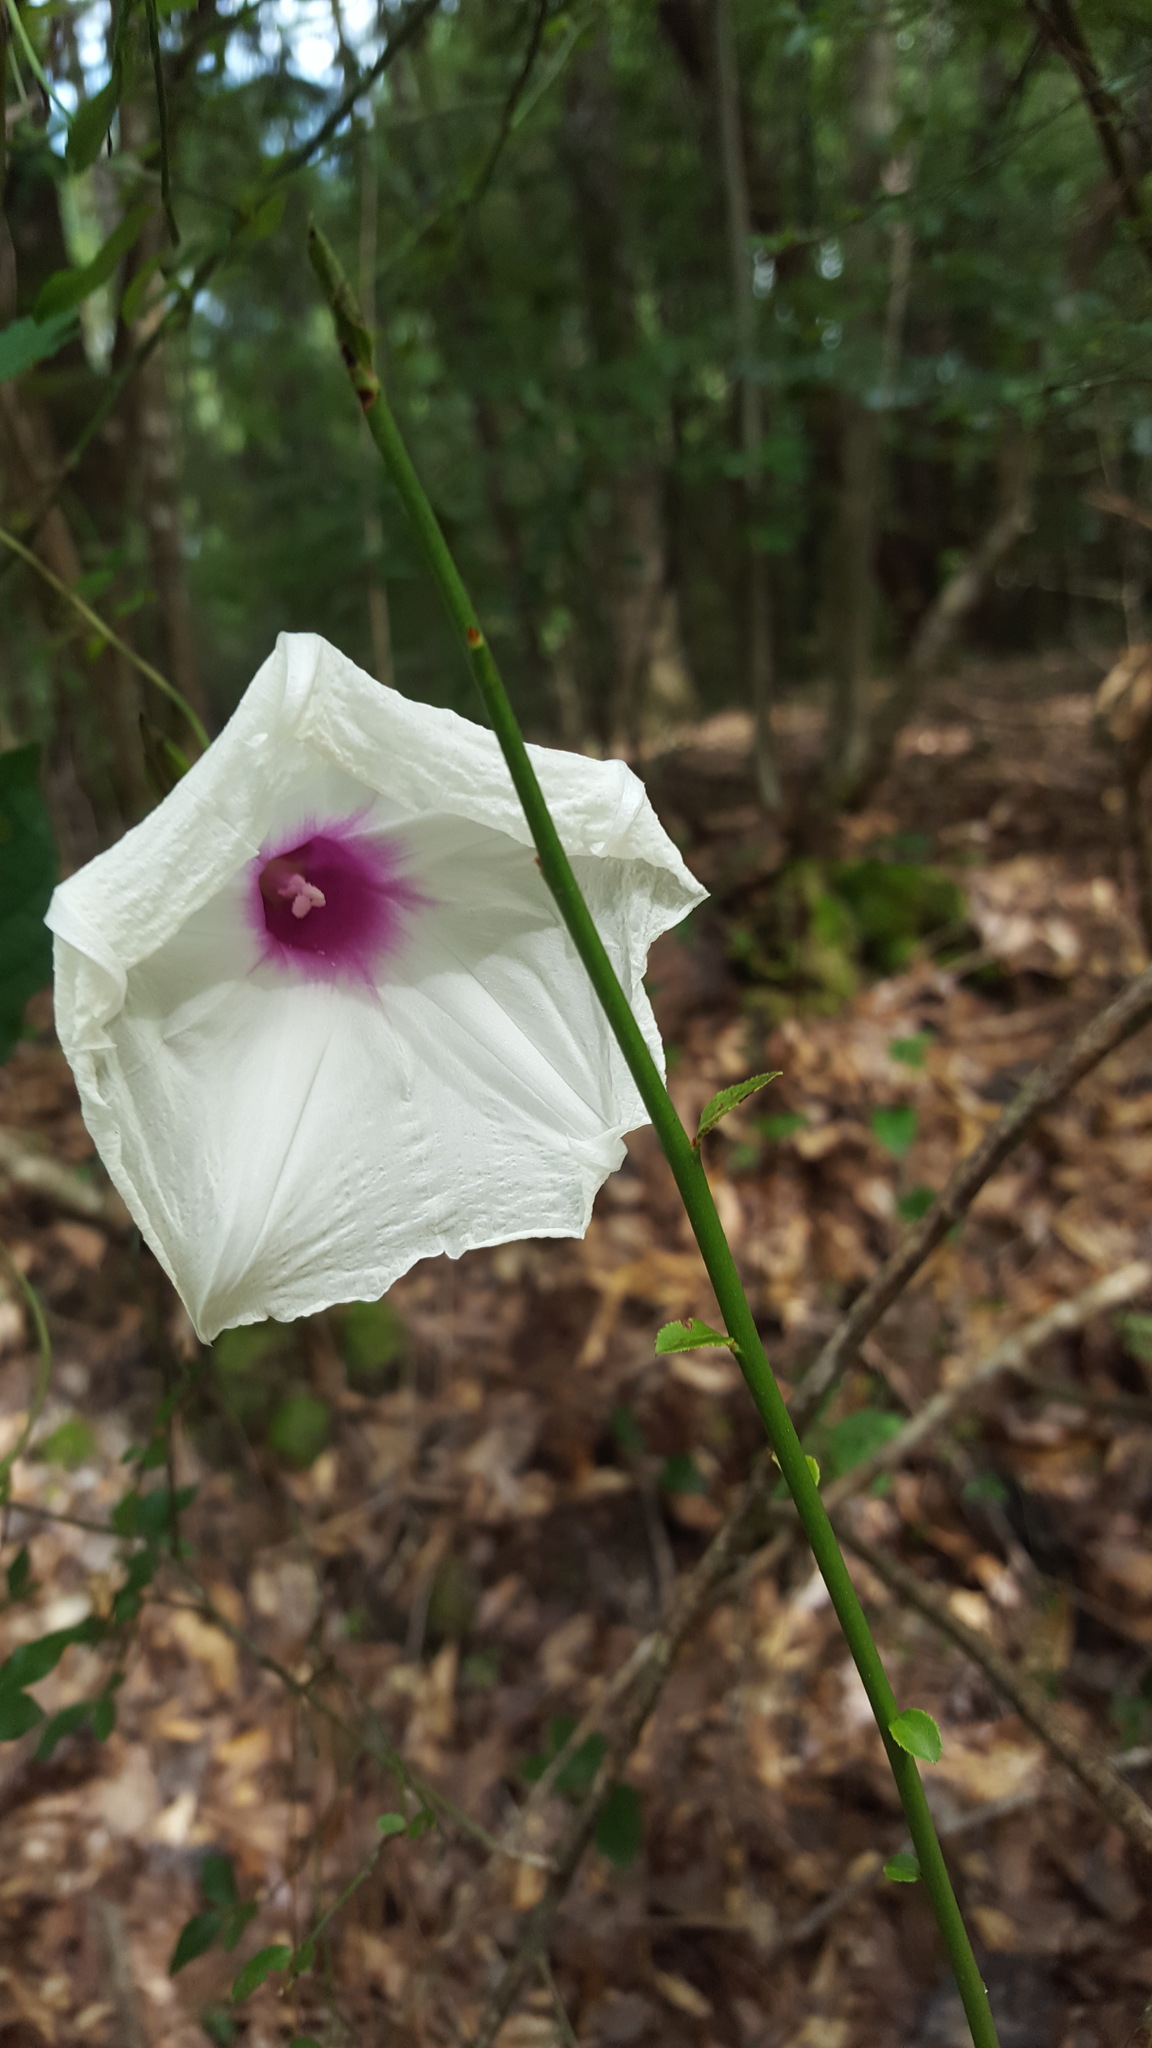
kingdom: Plantae
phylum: Tracheophyta
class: Magnoliopsida
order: Solanales
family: Convolvulaceae
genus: Ipomoea
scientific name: Ipomoea pandurata
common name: Man-of-the-earth
